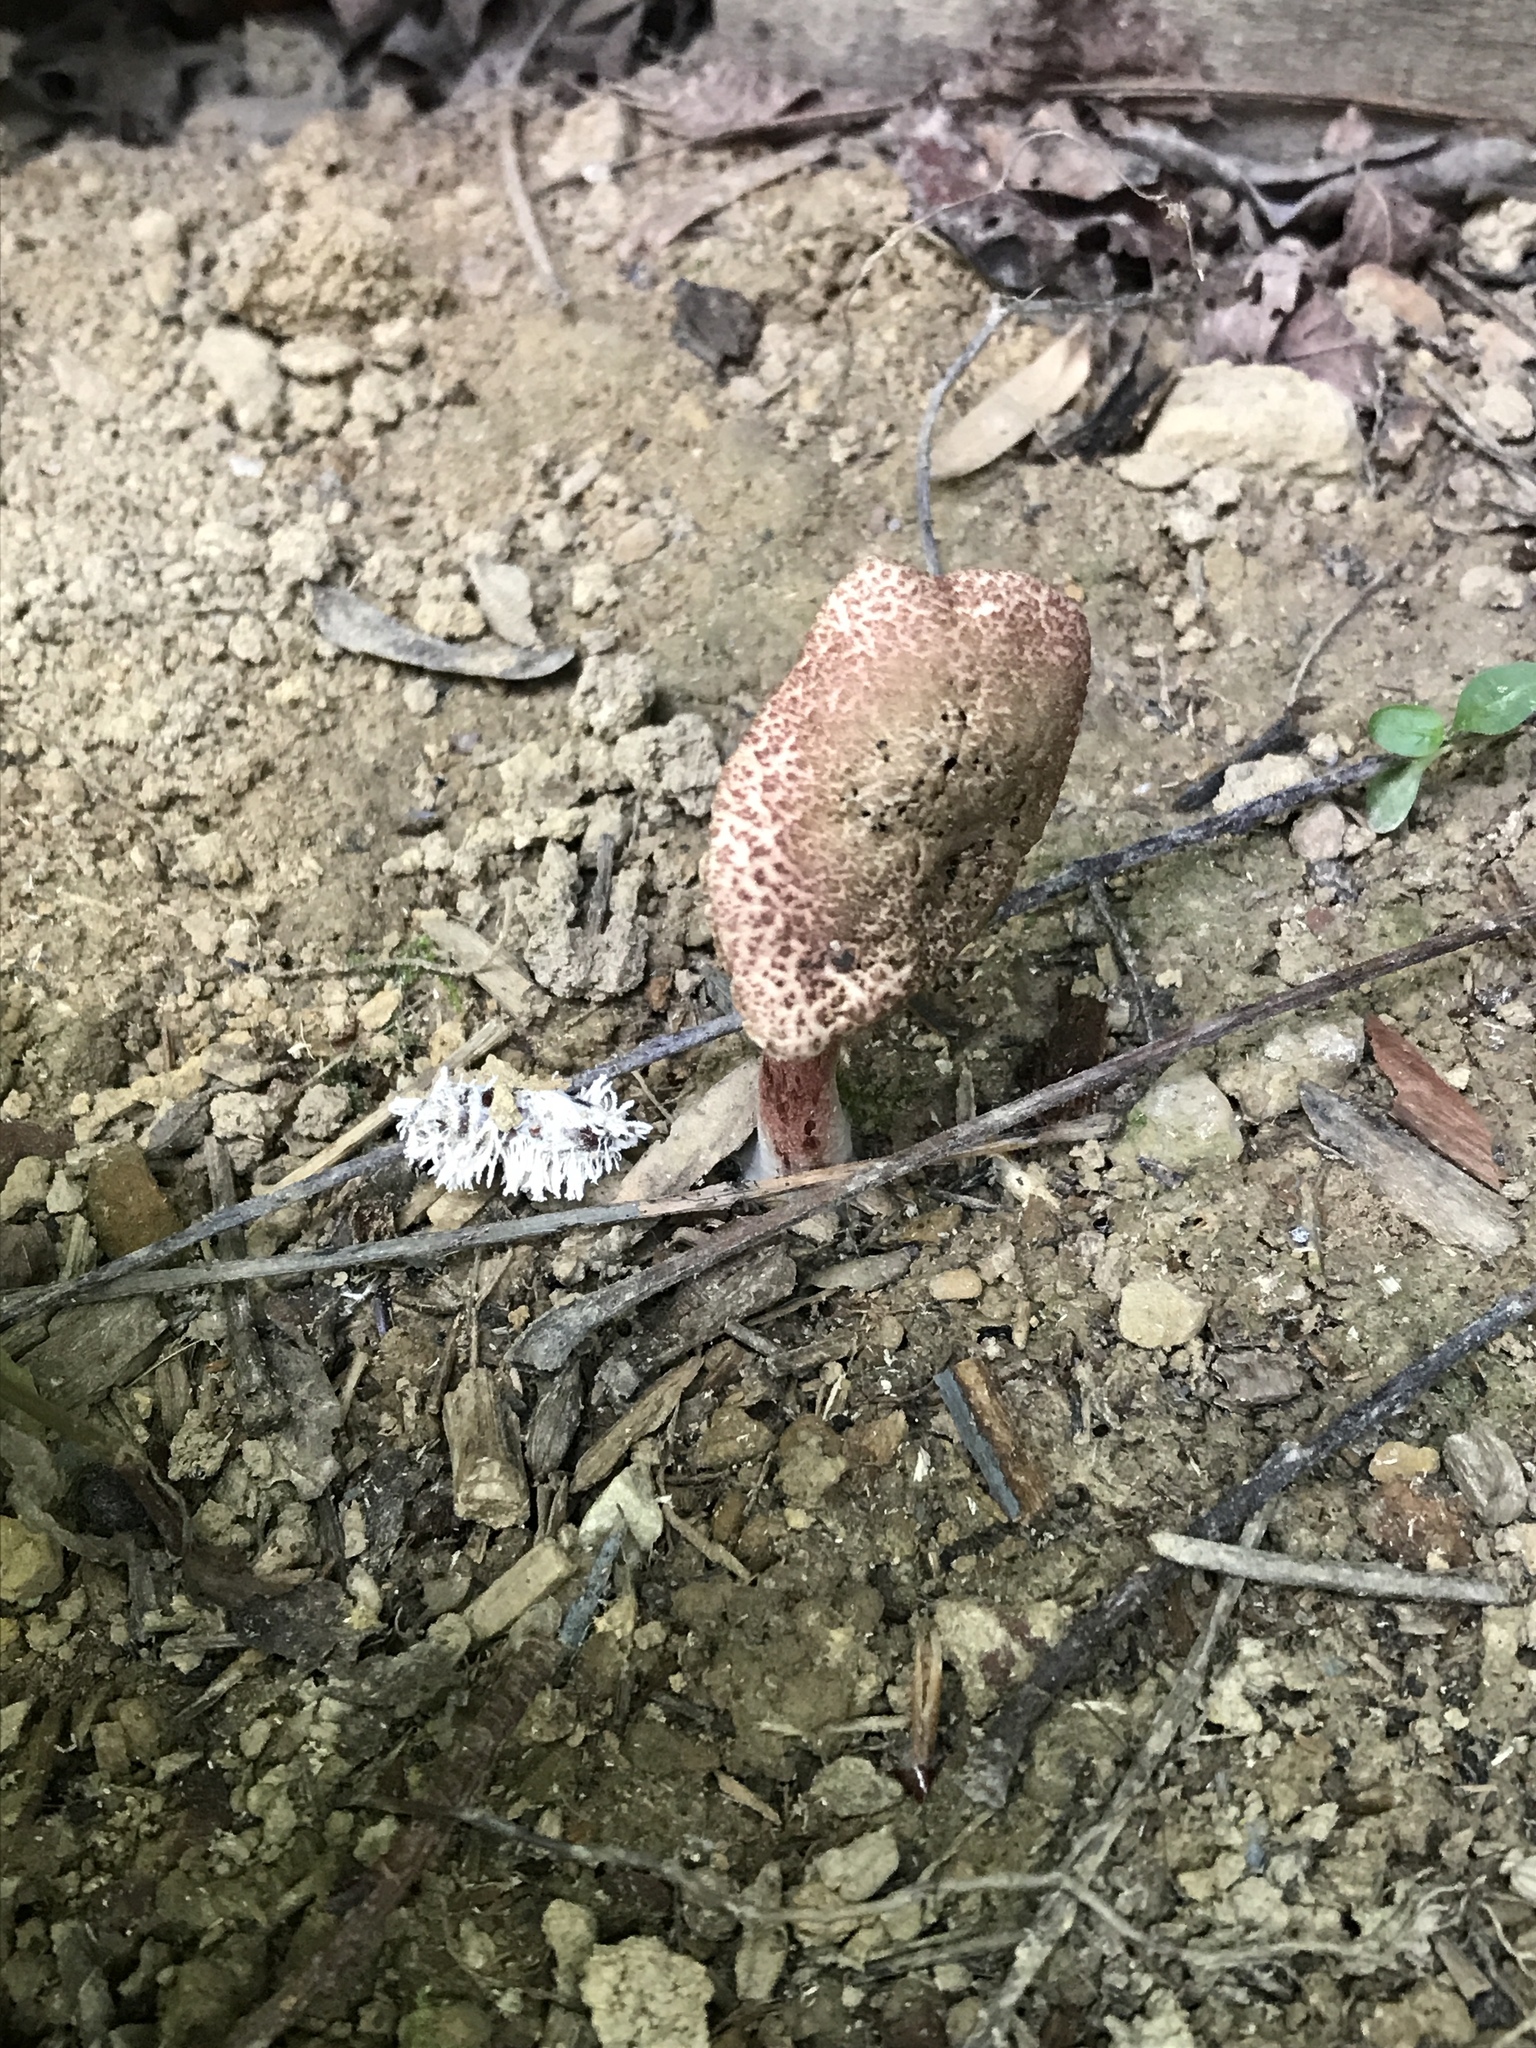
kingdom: Fungi
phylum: Basidiomycota
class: Agaricomycetes
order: Agaricales
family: Agaricaceae
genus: Leucoagaricus
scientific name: Leucoagaricus americanus
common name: Reddening lepiota
